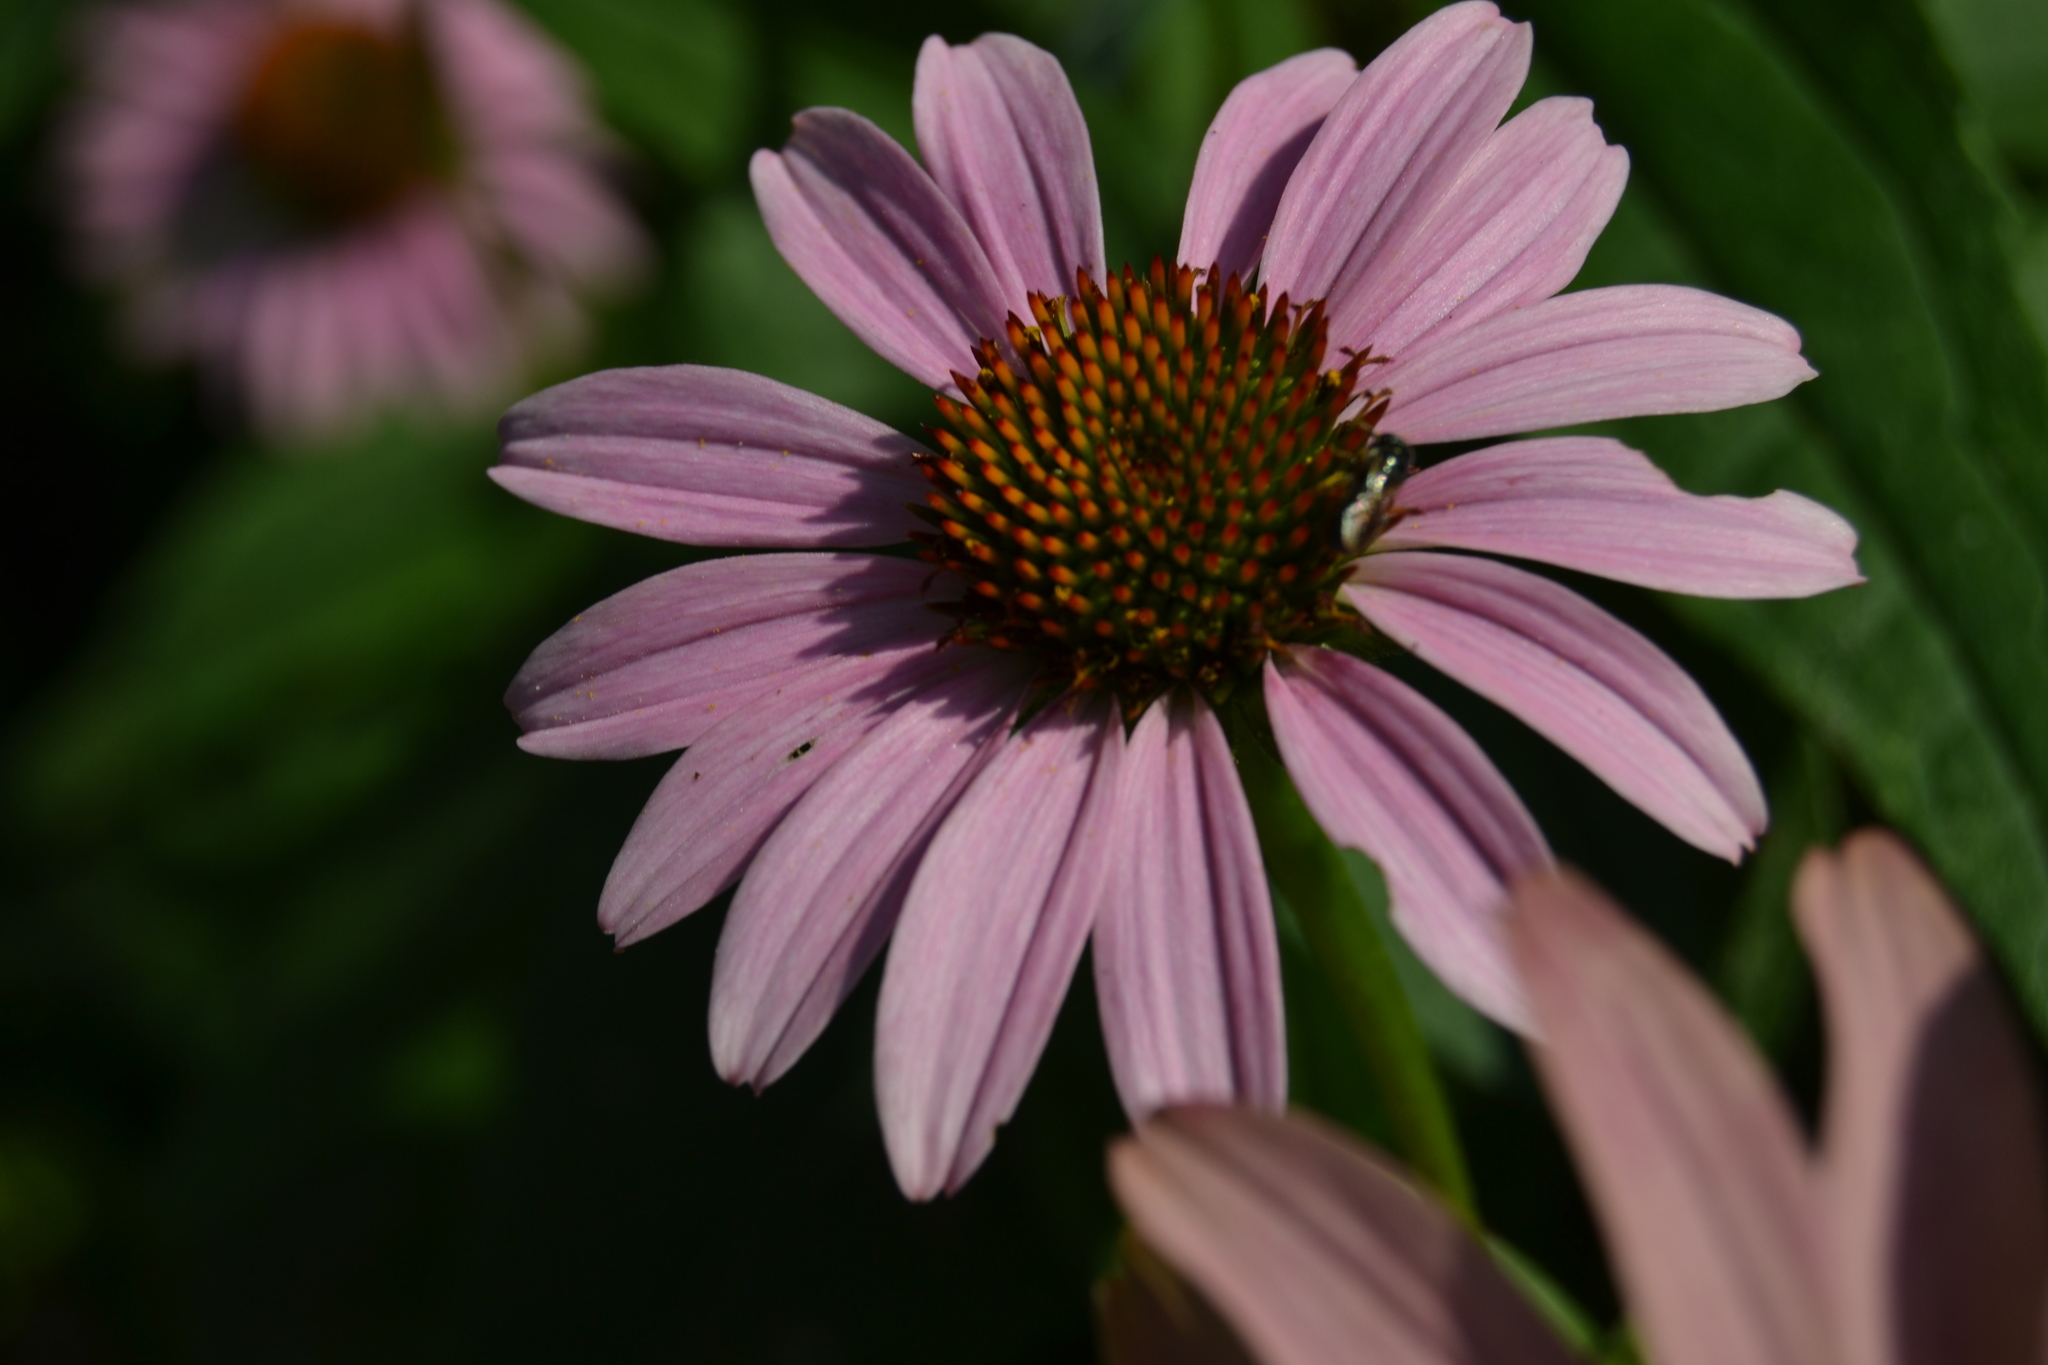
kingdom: Animalia
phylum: Arthropoda
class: Insecta
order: Hymenoptera
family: Apidae
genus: Zadontomerus
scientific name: Zadontomerus
